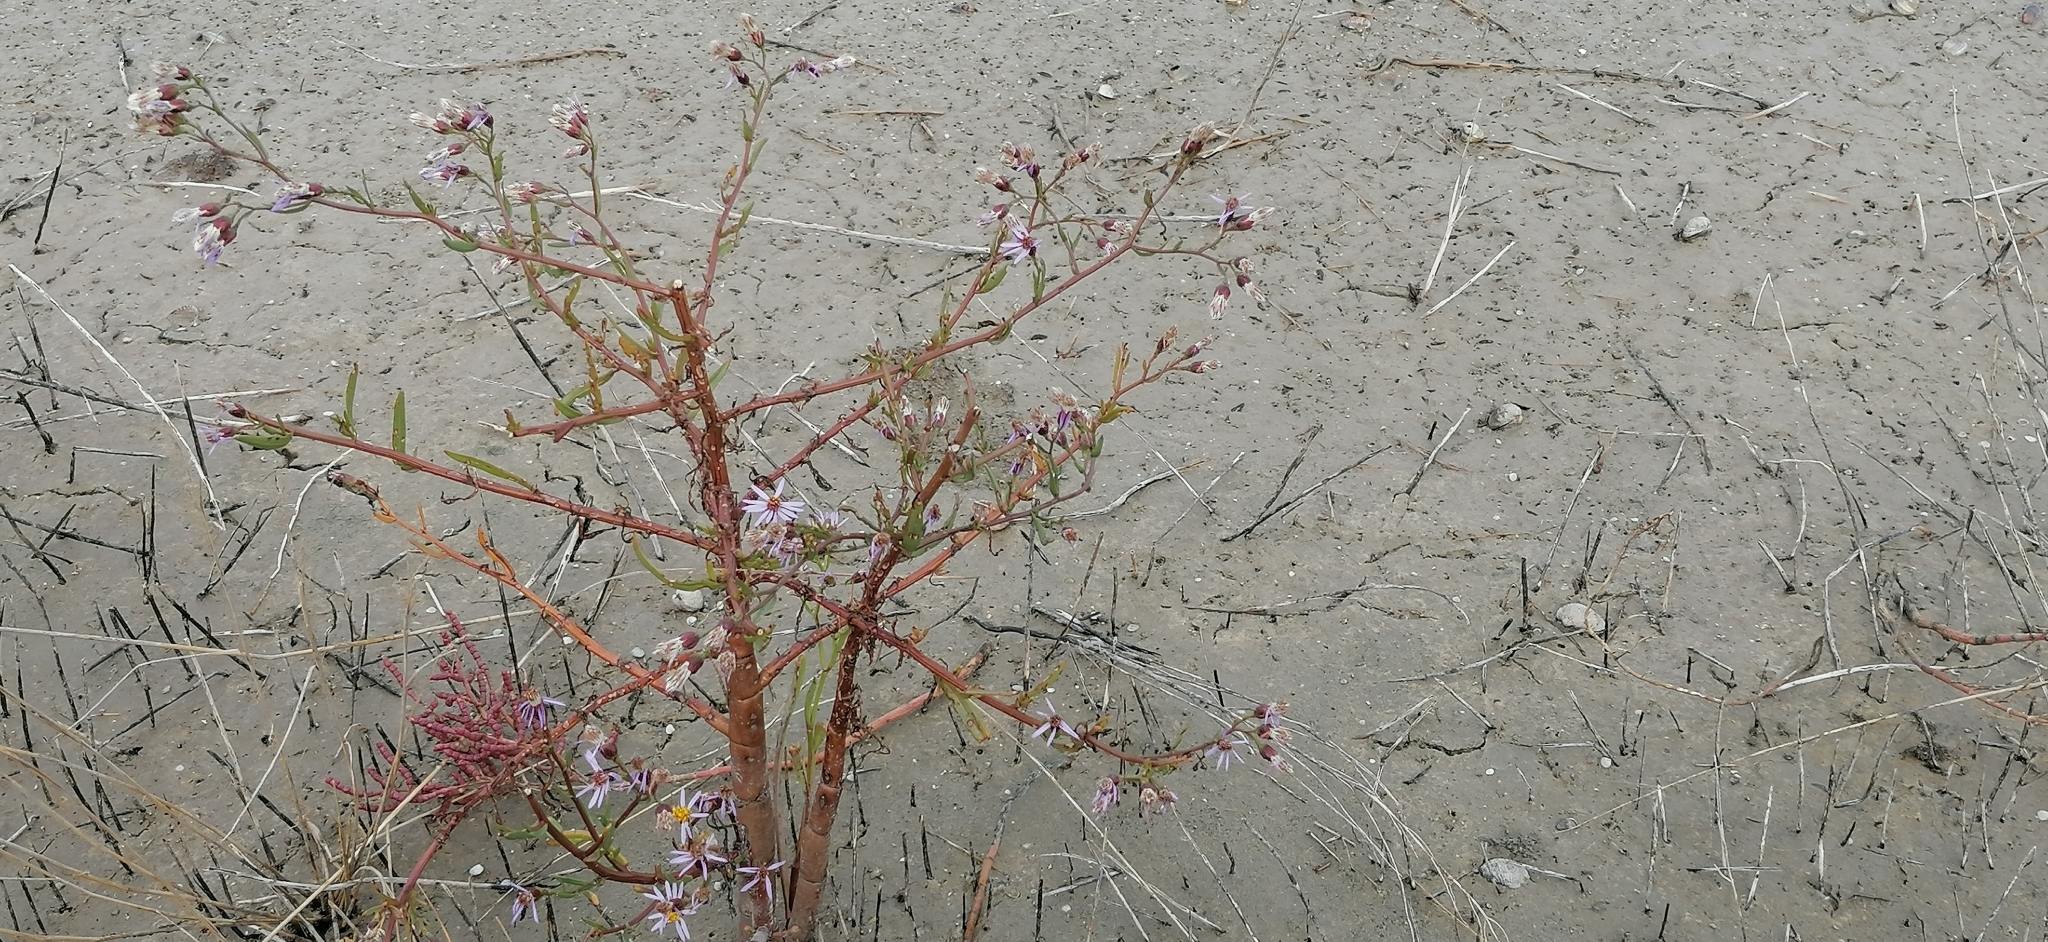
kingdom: Plantae
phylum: Tracheophyta
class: Magnoliopsida
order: Asterales
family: Asteraceae
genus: Tripolium
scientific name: Tripolium pannonicum
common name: Sea aster
